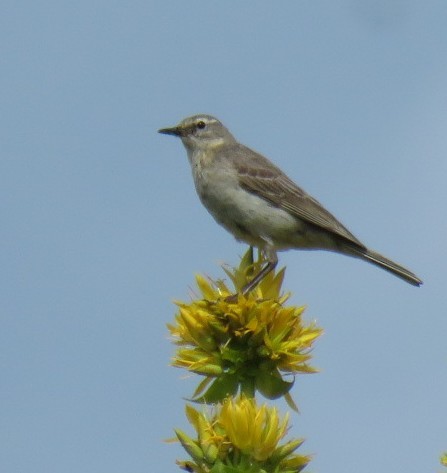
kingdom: Animalia
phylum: Chordata
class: Aves
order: Passeriformes
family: Motacillidae
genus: Anthus
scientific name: Anthus spinoletta
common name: Water pipit
